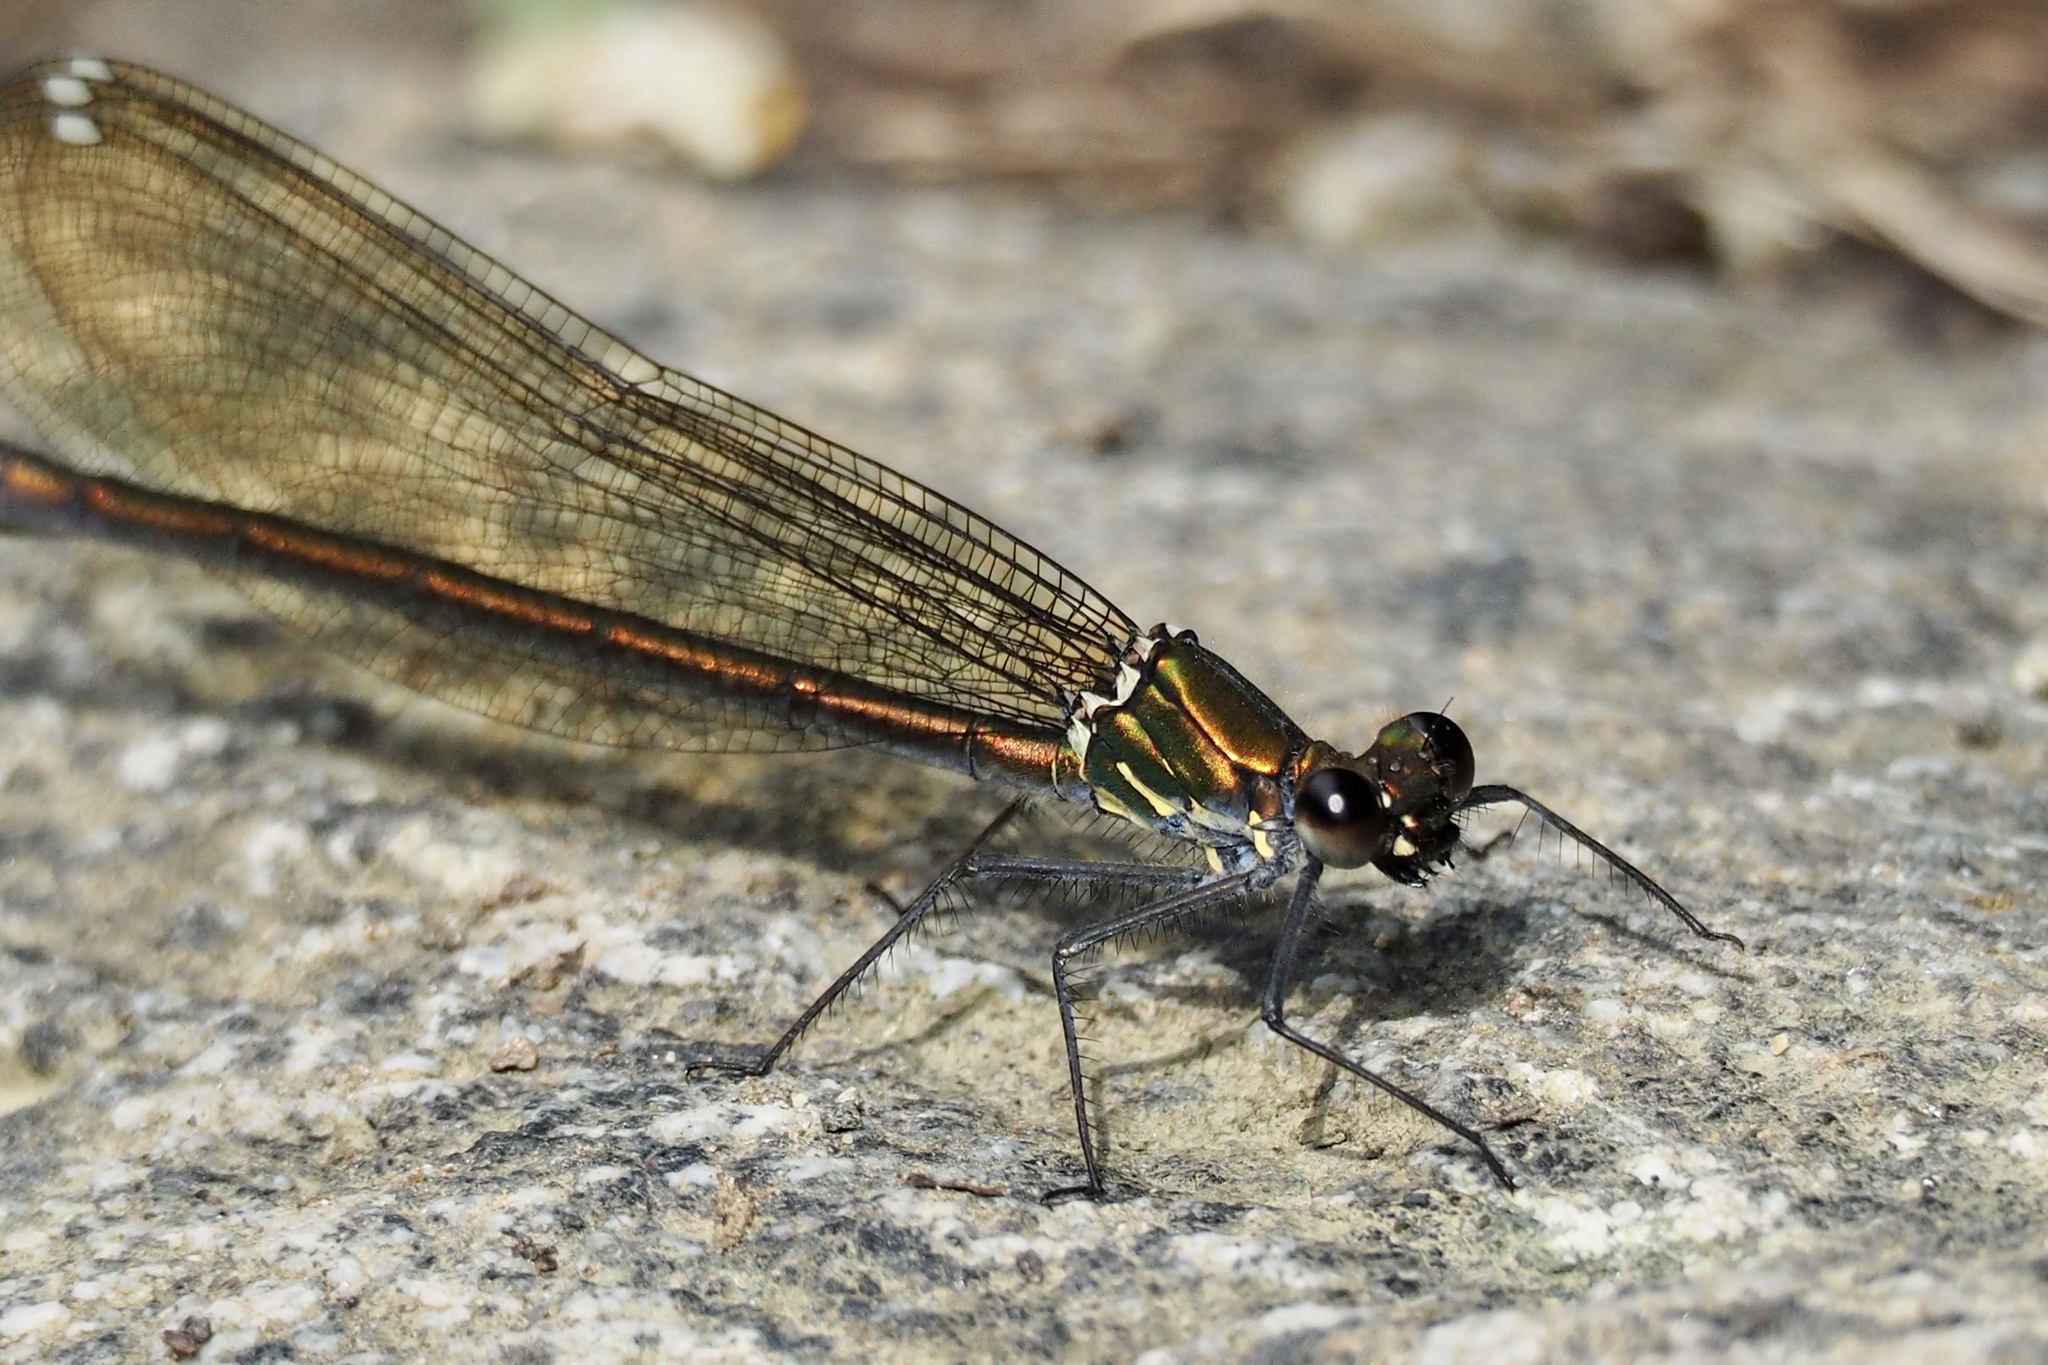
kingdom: Animalia
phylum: Arthropoda
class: Insecta
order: Odonata
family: Calopterygidae
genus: Mnais
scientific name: Mnais costalis
